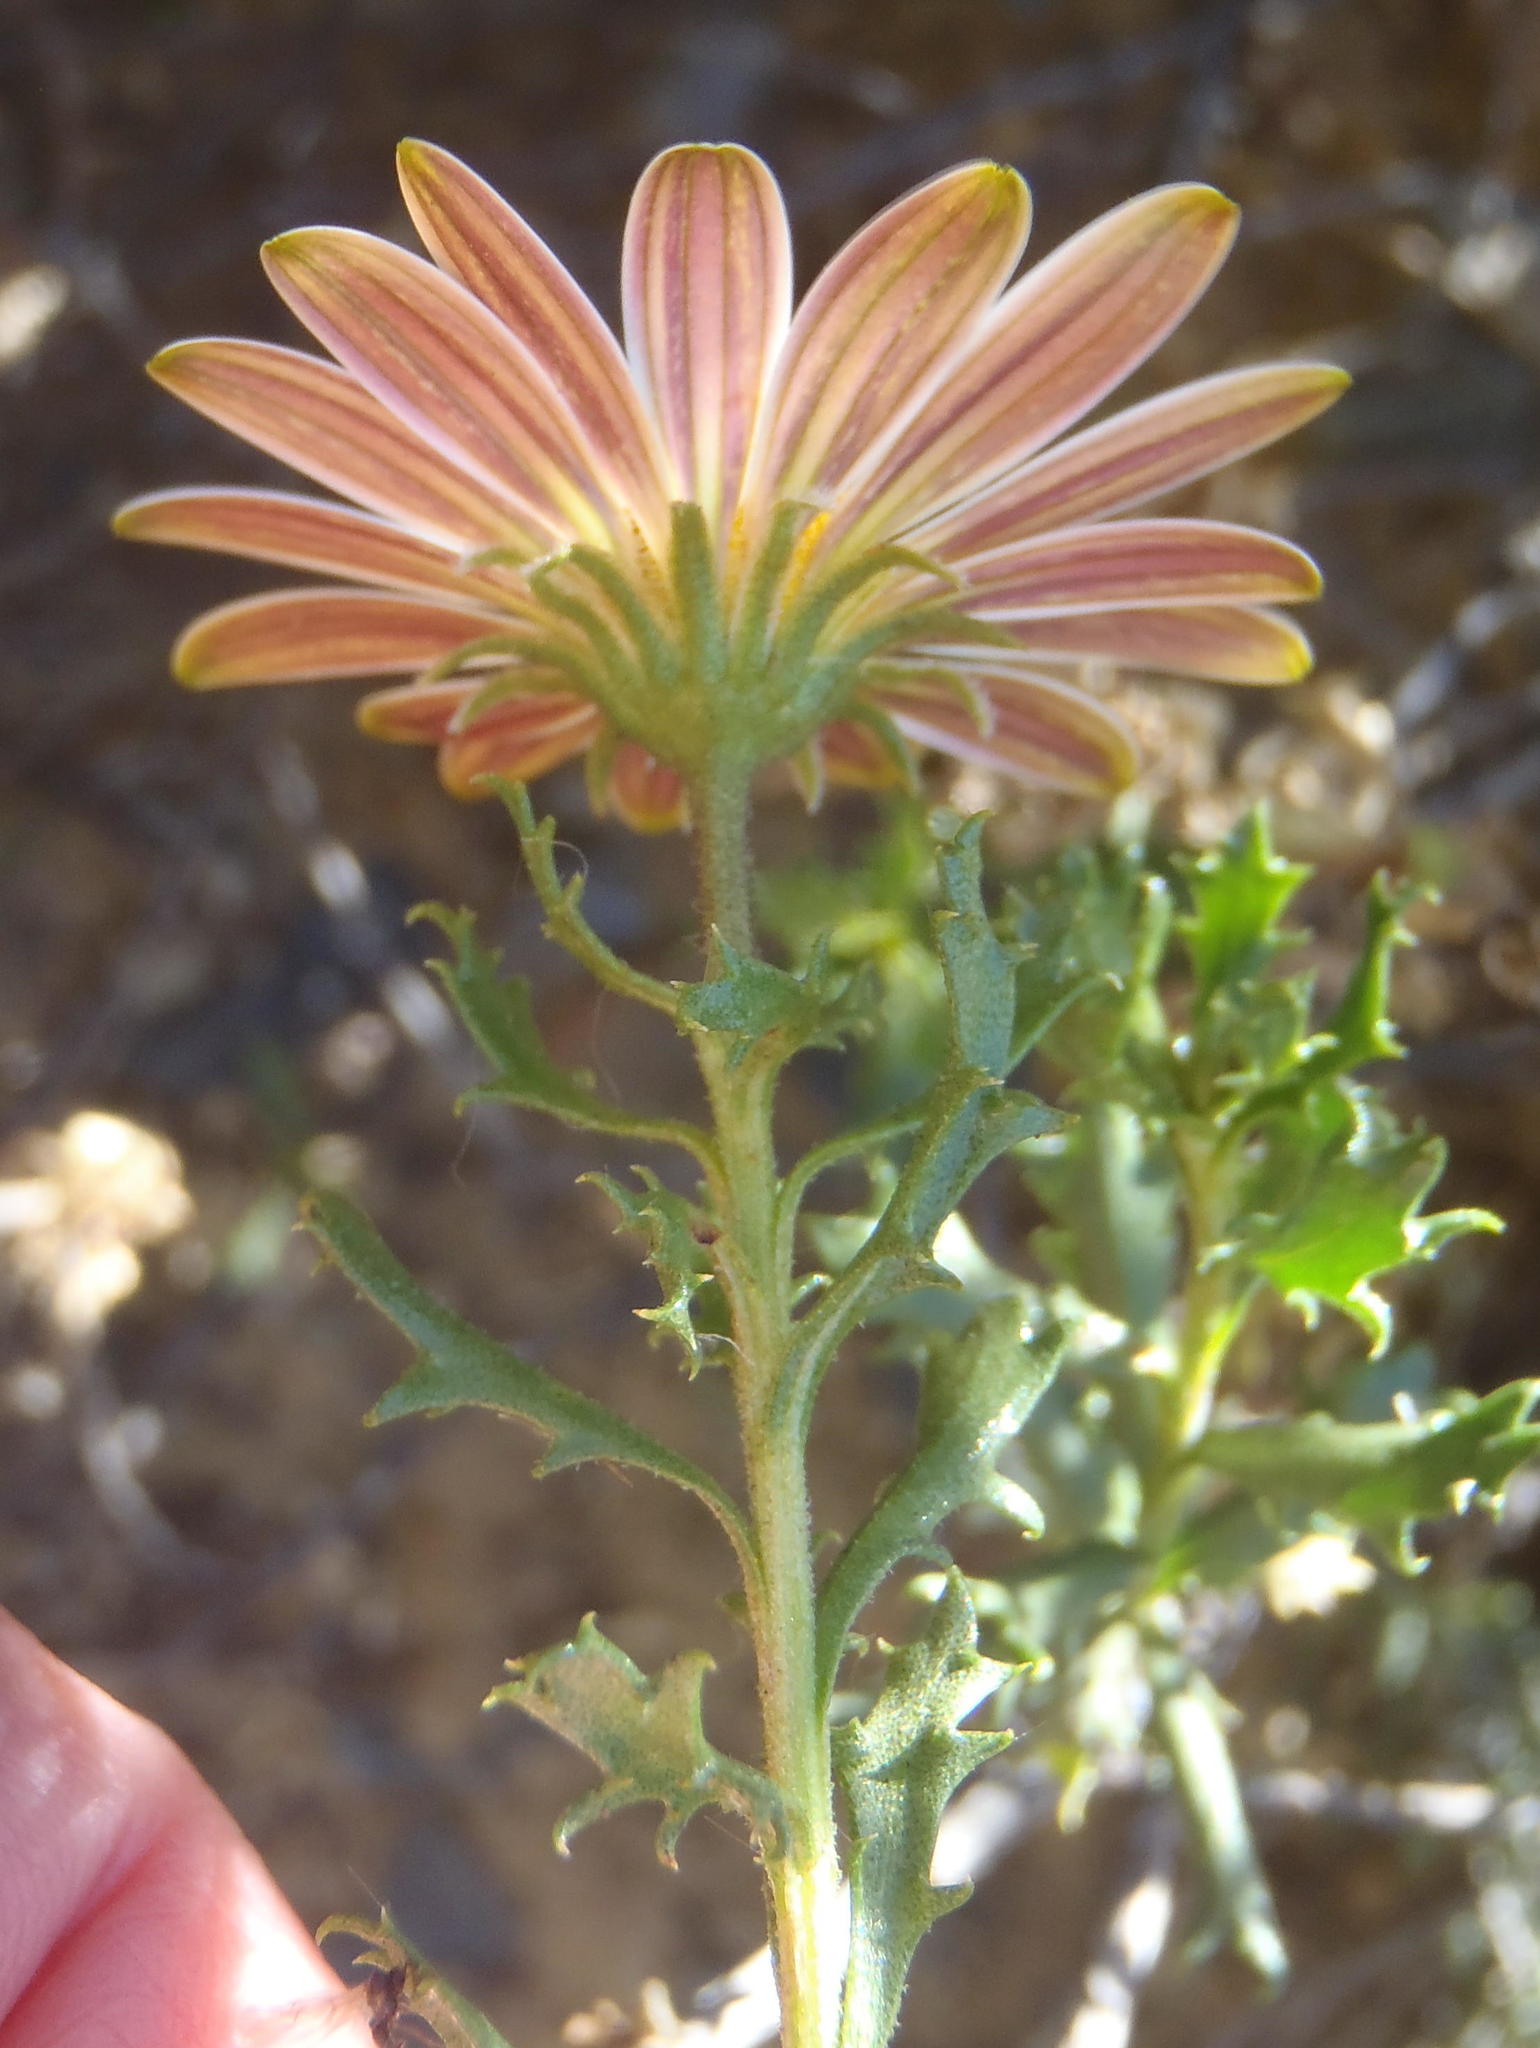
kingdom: Plantae
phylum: Tracheophyta
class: Magnoliopsida
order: Asterales
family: Asteraceae
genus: Dimorphotheca
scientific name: Dimorphotheca cuneata
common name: Daisy
